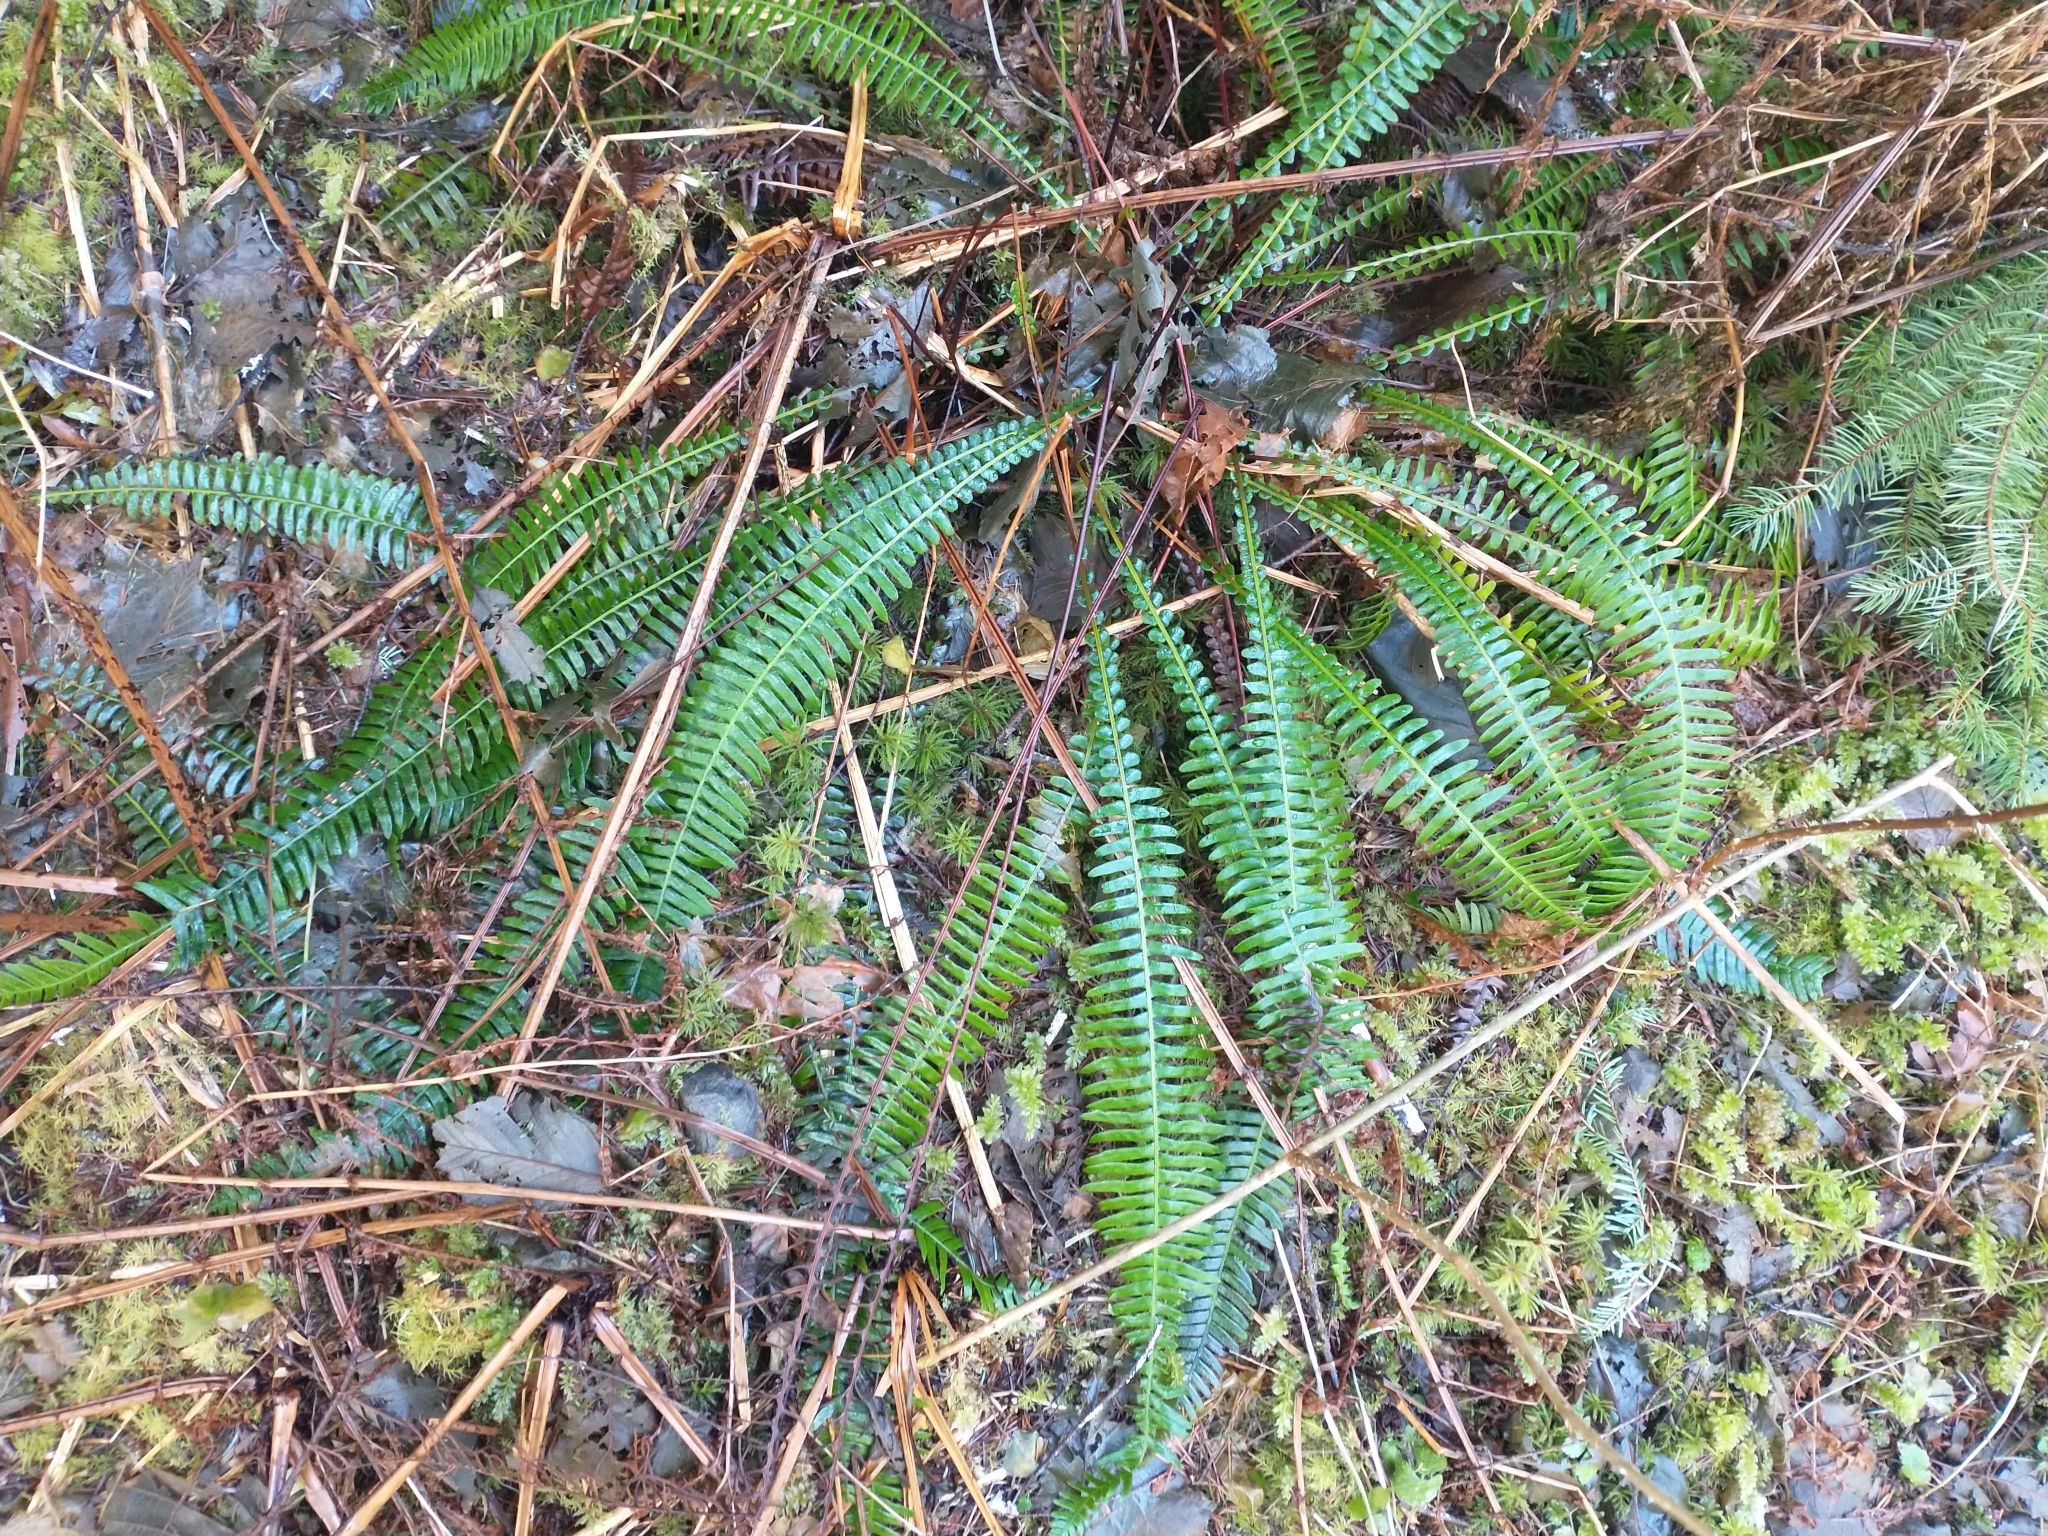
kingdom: Plantae
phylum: Tracheophyta
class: Polypodiopsida
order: Polypodiales
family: Blechnaceae
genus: Struthiopteris
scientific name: Struthiopteris spicant
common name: Deer fern
